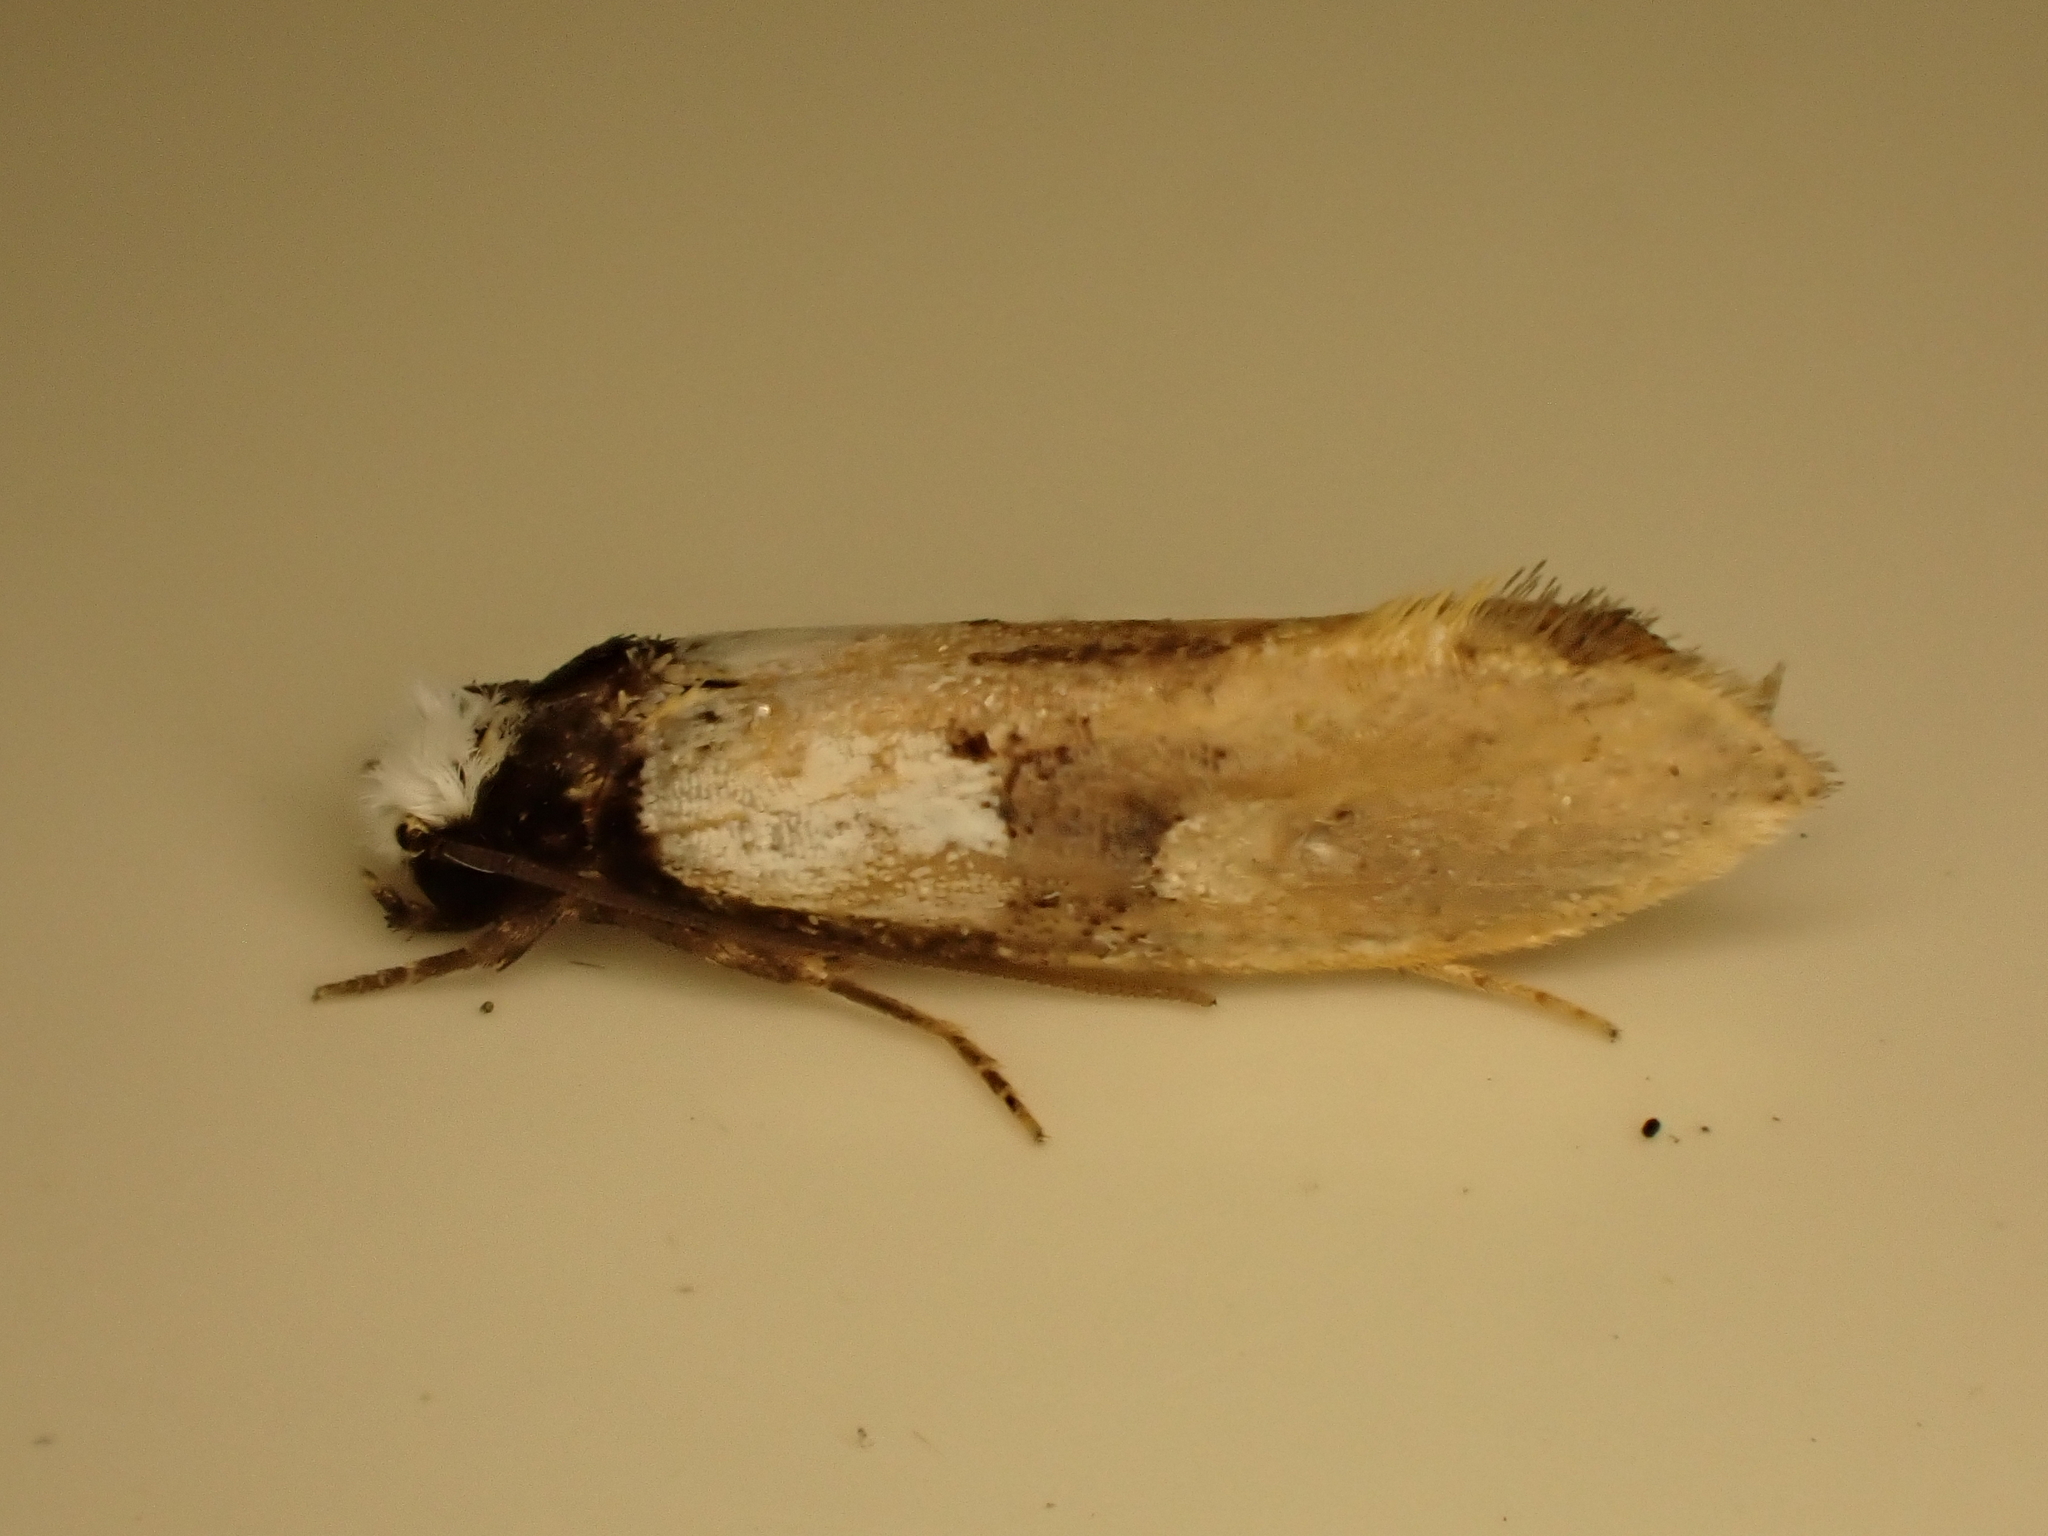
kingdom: Animalia
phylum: Arthropoda
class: Insecta
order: Lepidoptera
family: Tineidae
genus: Monopis
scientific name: Monopis icterogastra
